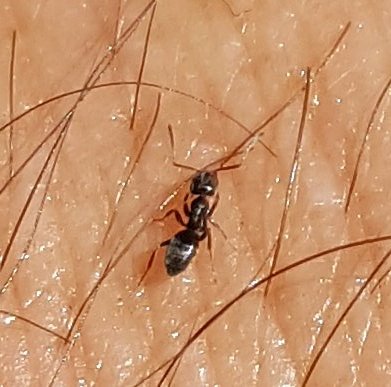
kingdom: Animalia
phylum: Arthropoda
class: Insecta
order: Hymenoptera
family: Formicidae
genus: Tapinoma
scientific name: Tapinoma sessile
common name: Odorous house ant
